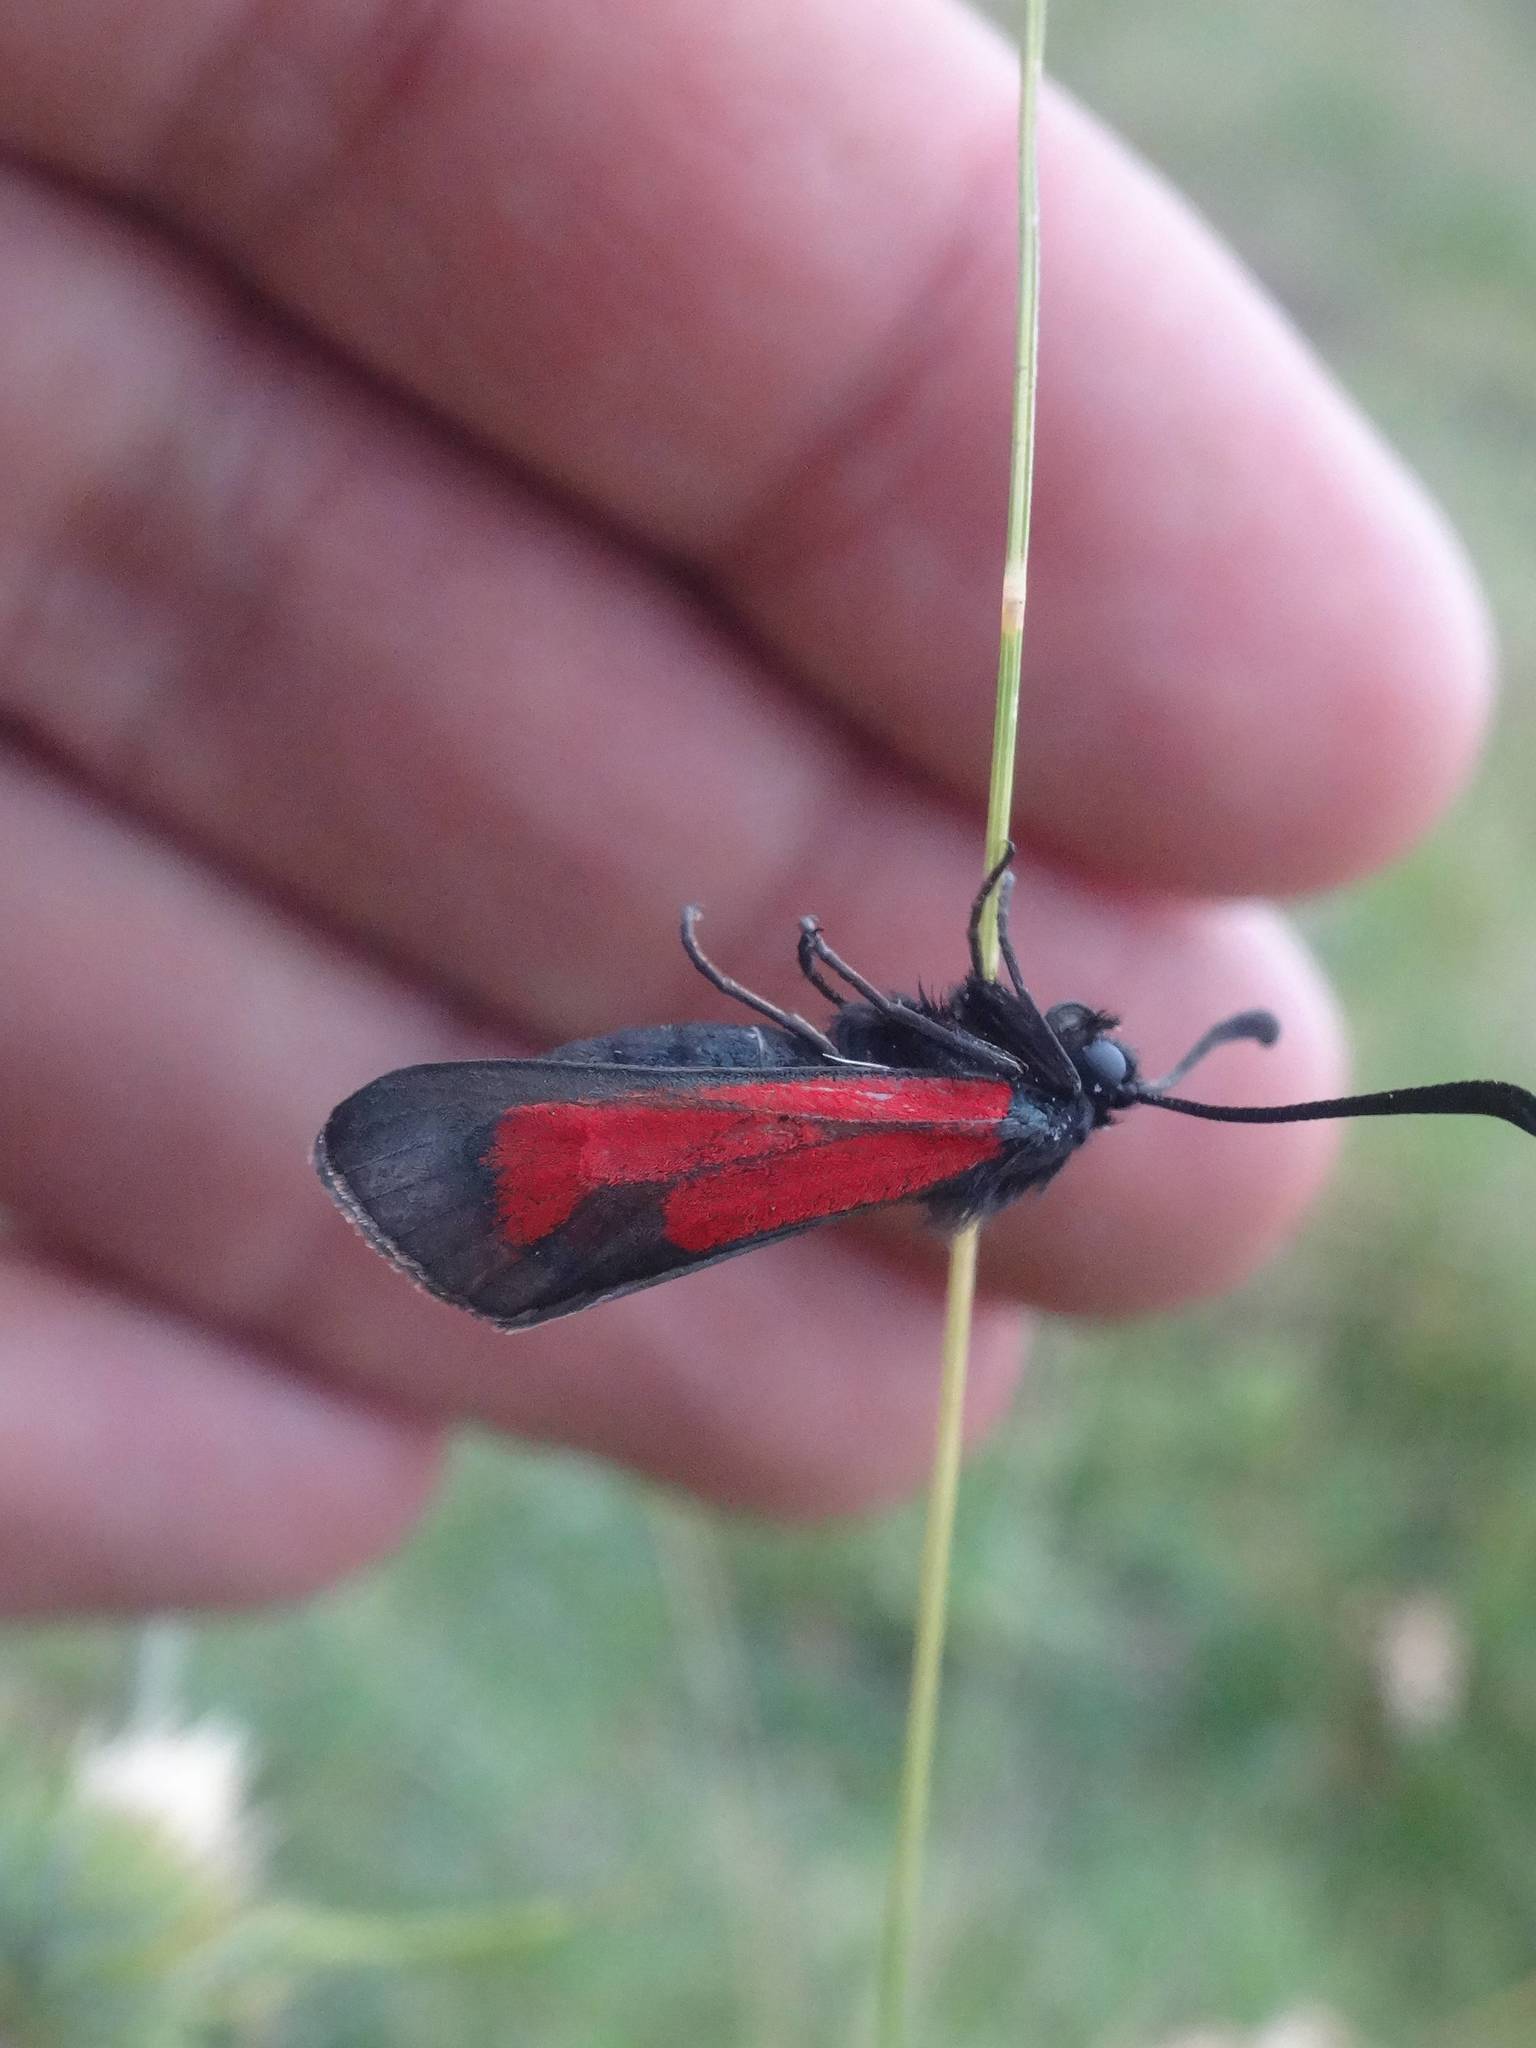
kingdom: Animalia
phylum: Arthropoda
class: Insecta
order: Lepidoptera
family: Zygaenidae
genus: Zygaena
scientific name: Zygaena purpuralis
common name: Transparent burnet
